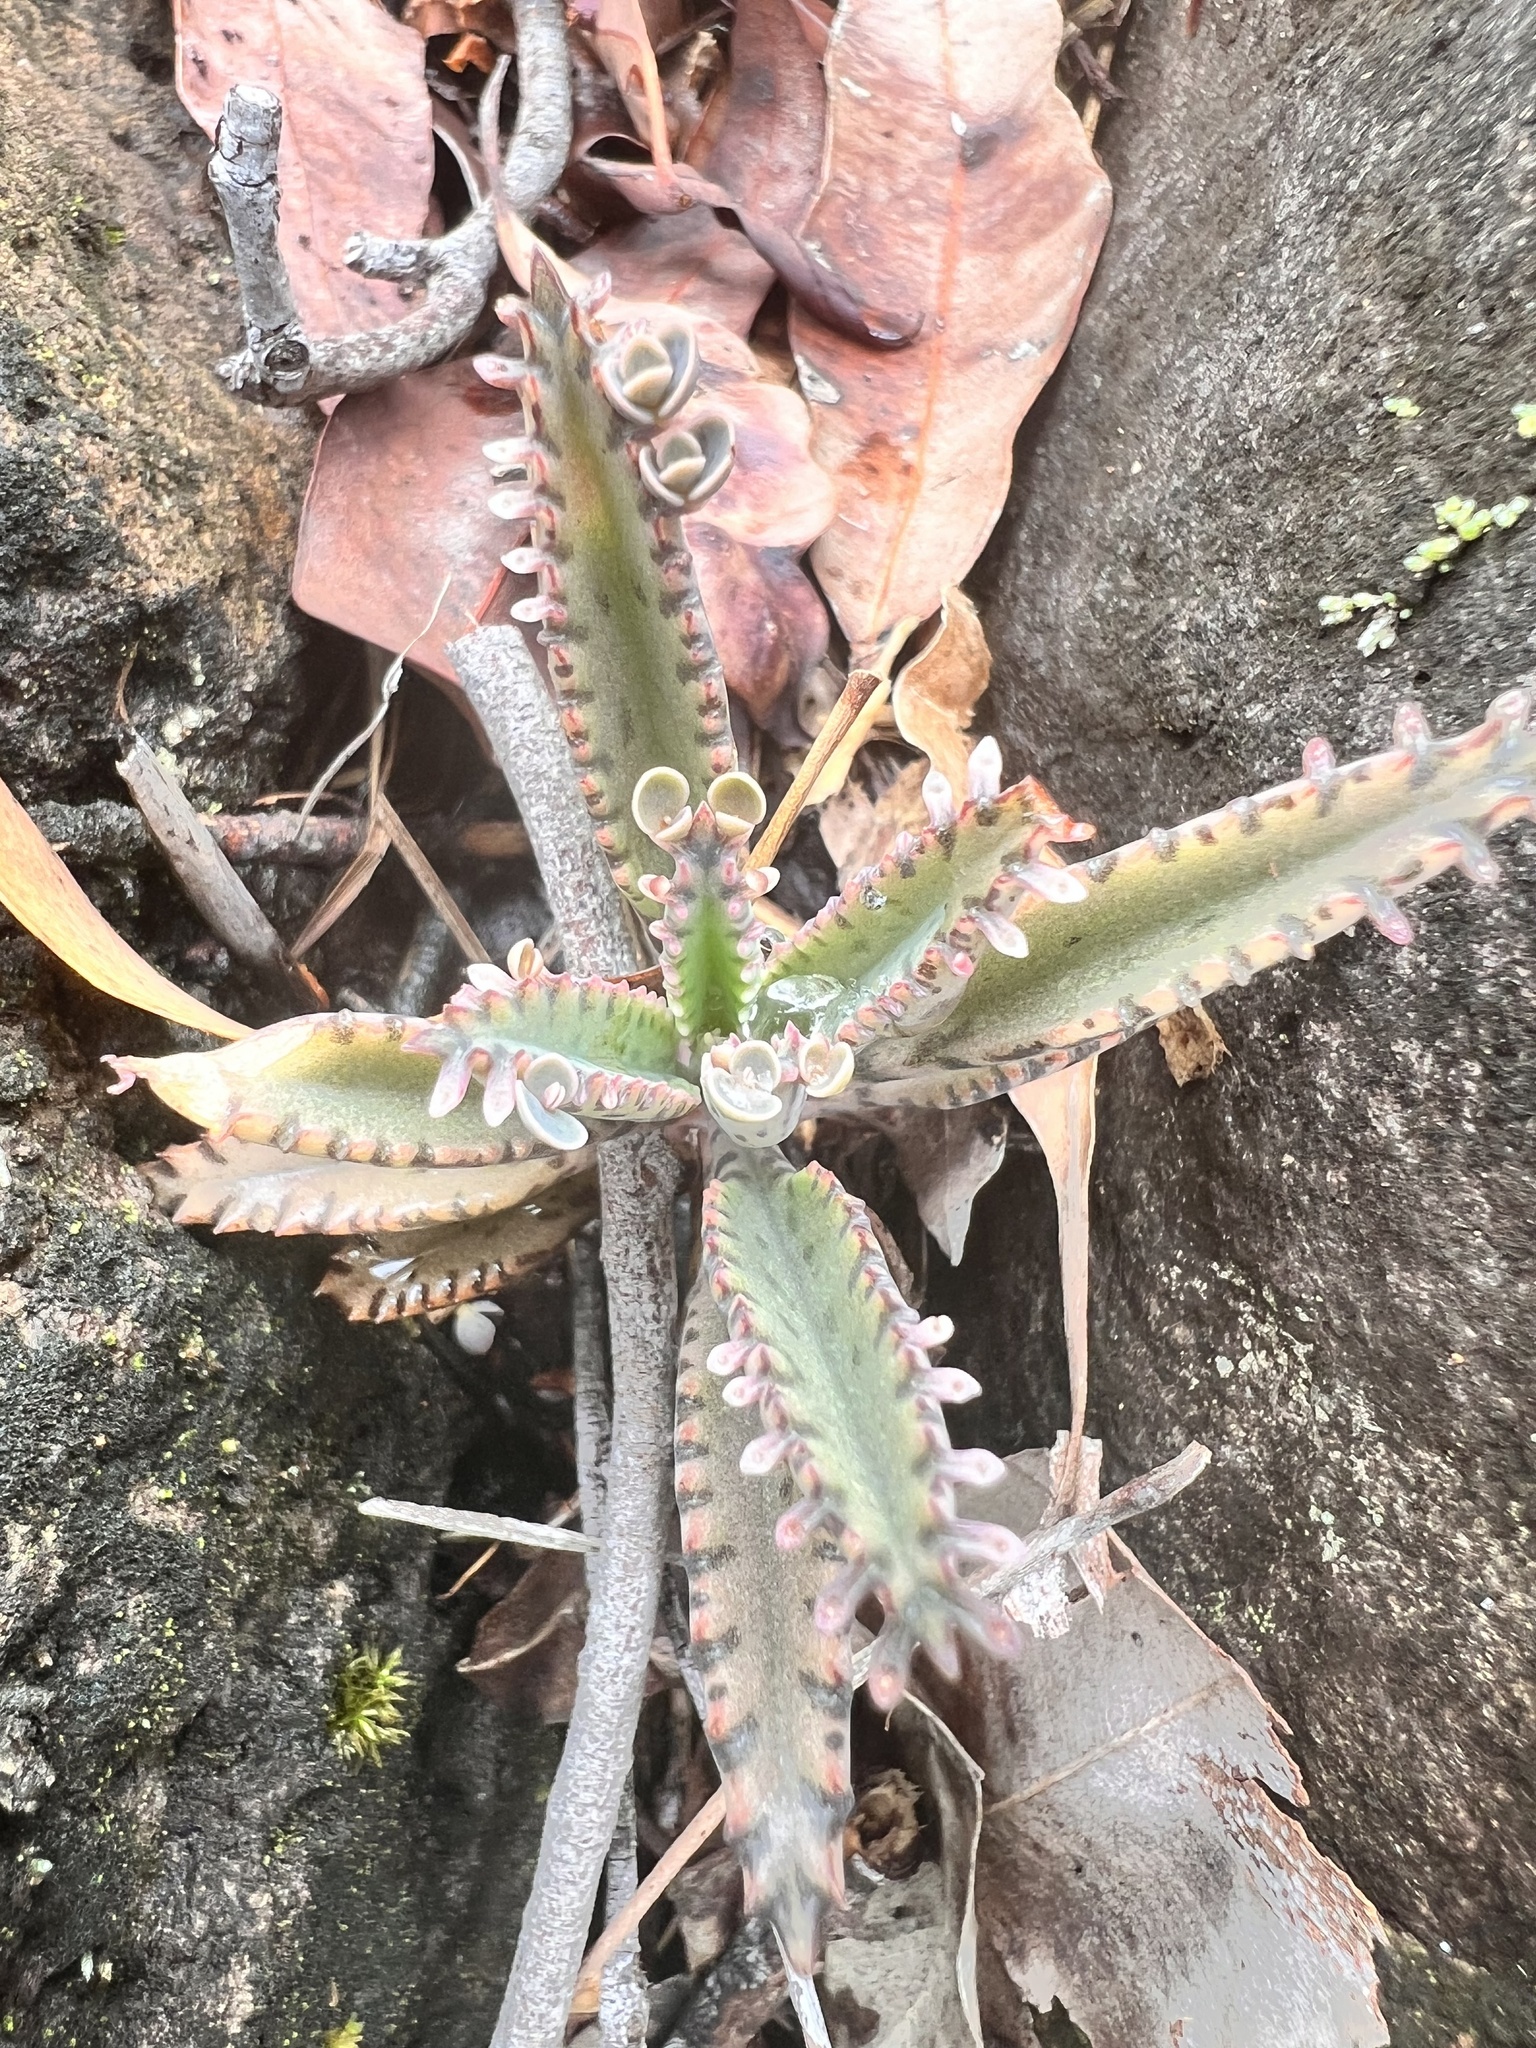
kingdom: Plantae
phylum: Tracheophyta
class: Magnoliopsida
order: Saxifragales
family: Crassulaceae
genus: Kalanchoe
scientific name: Kalanchoe houghtonii
